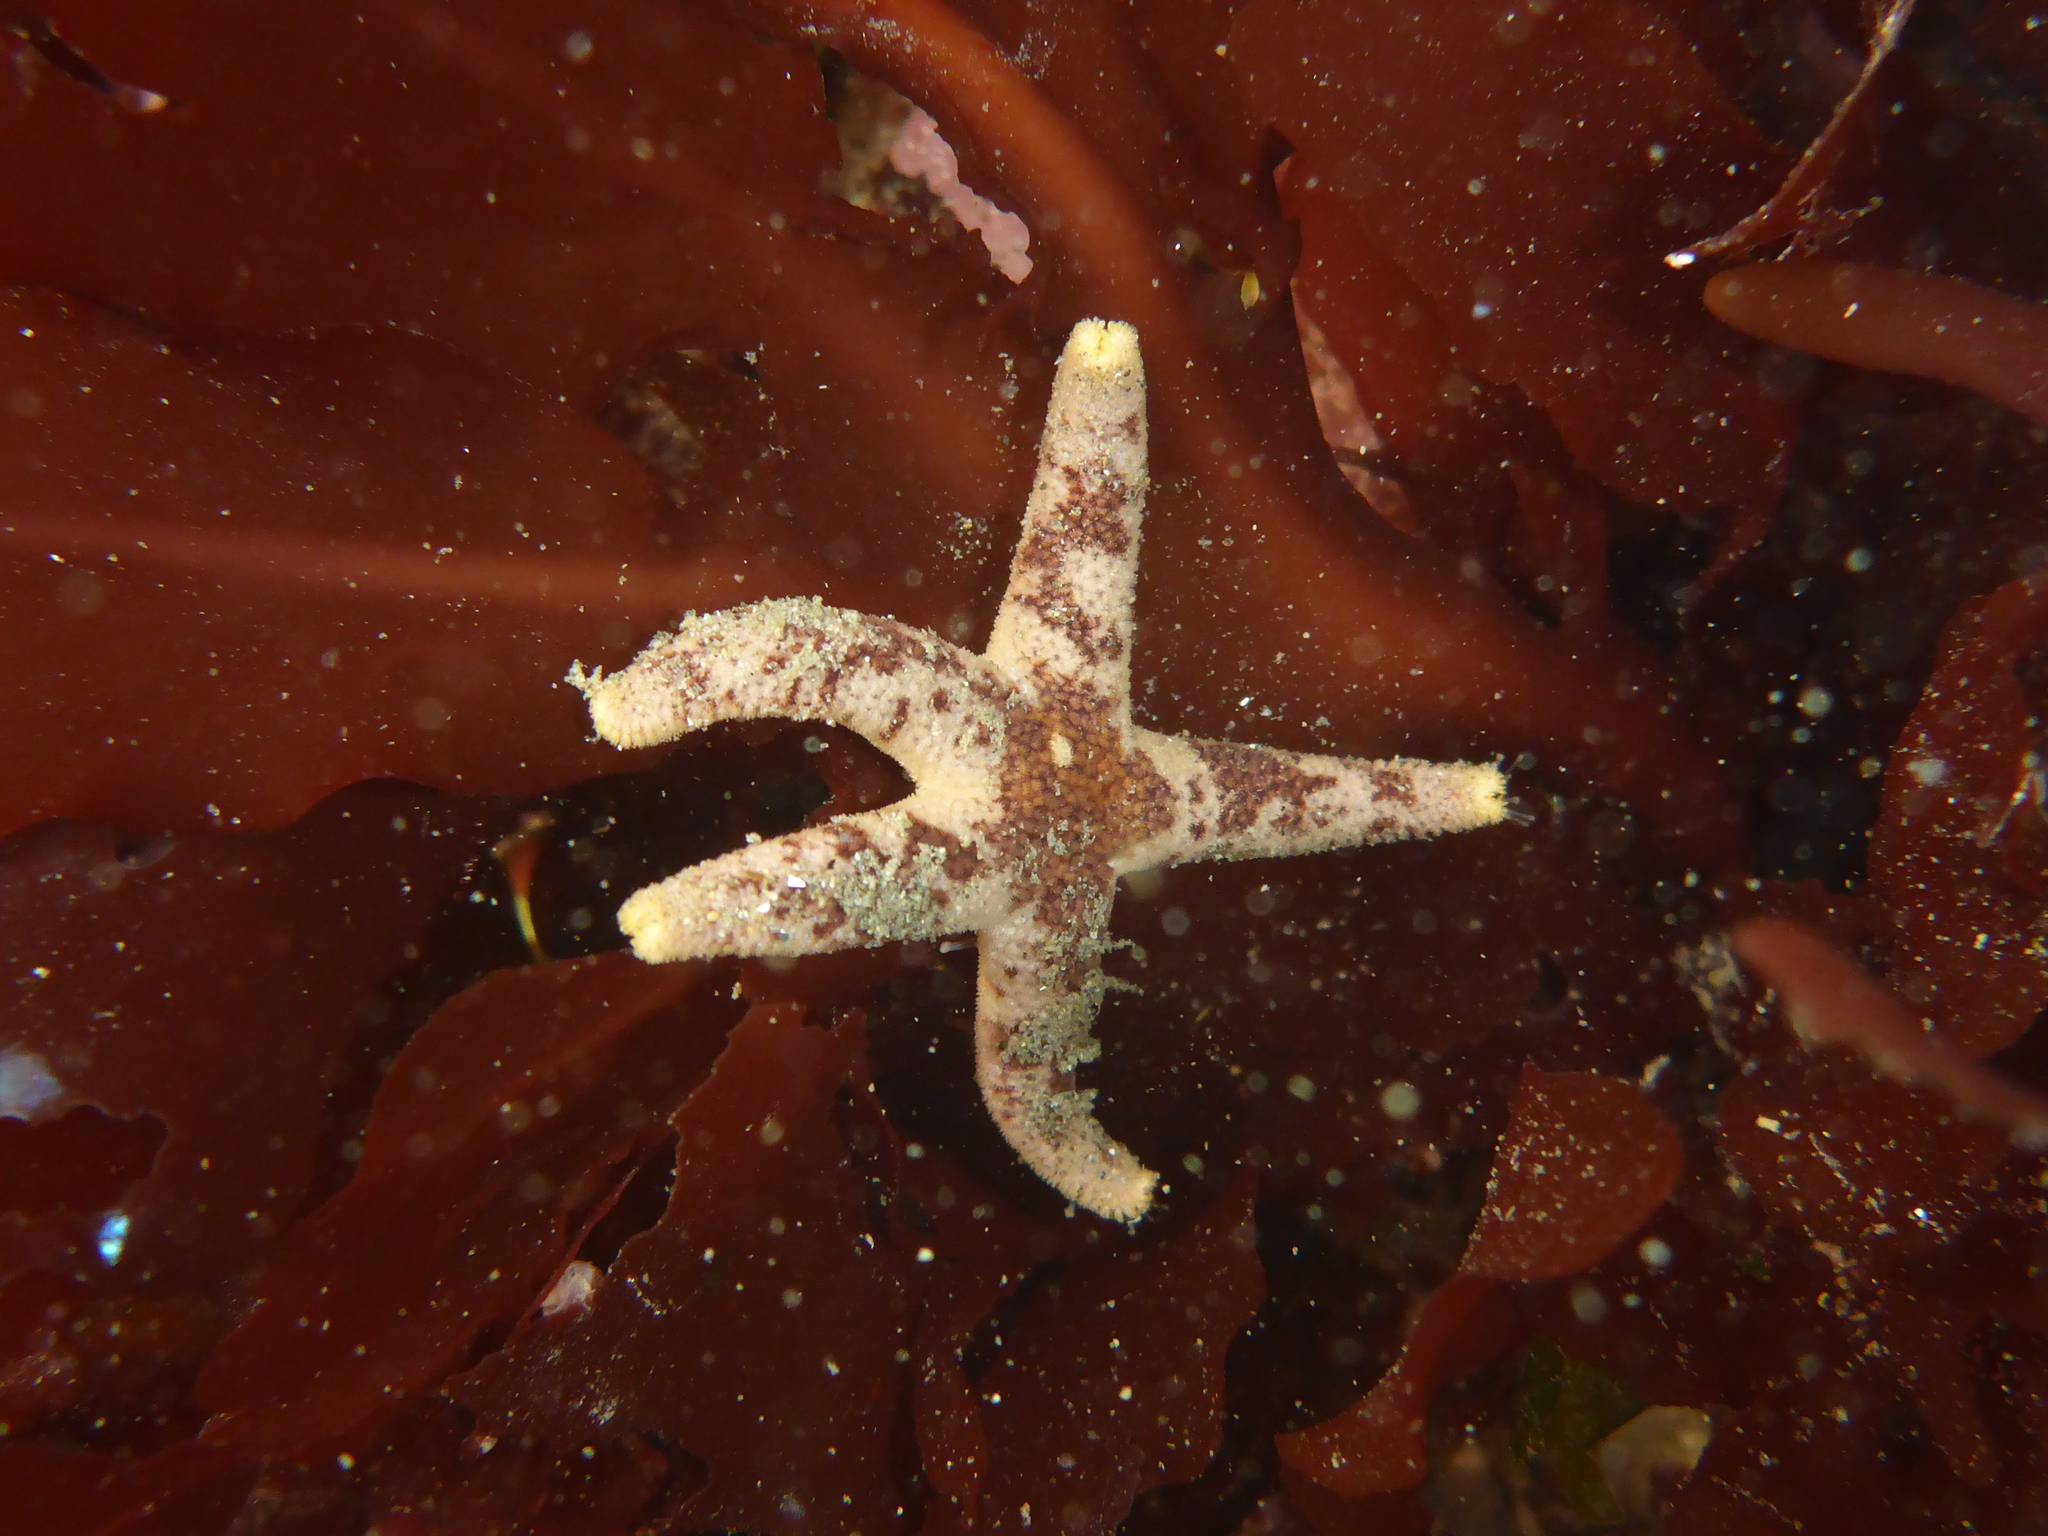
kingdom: Animalia
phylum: Echinodermata
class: Asteroidea
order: Spinulosida
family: Echinasteridae
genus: Henricia
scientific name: Henricia pumila
